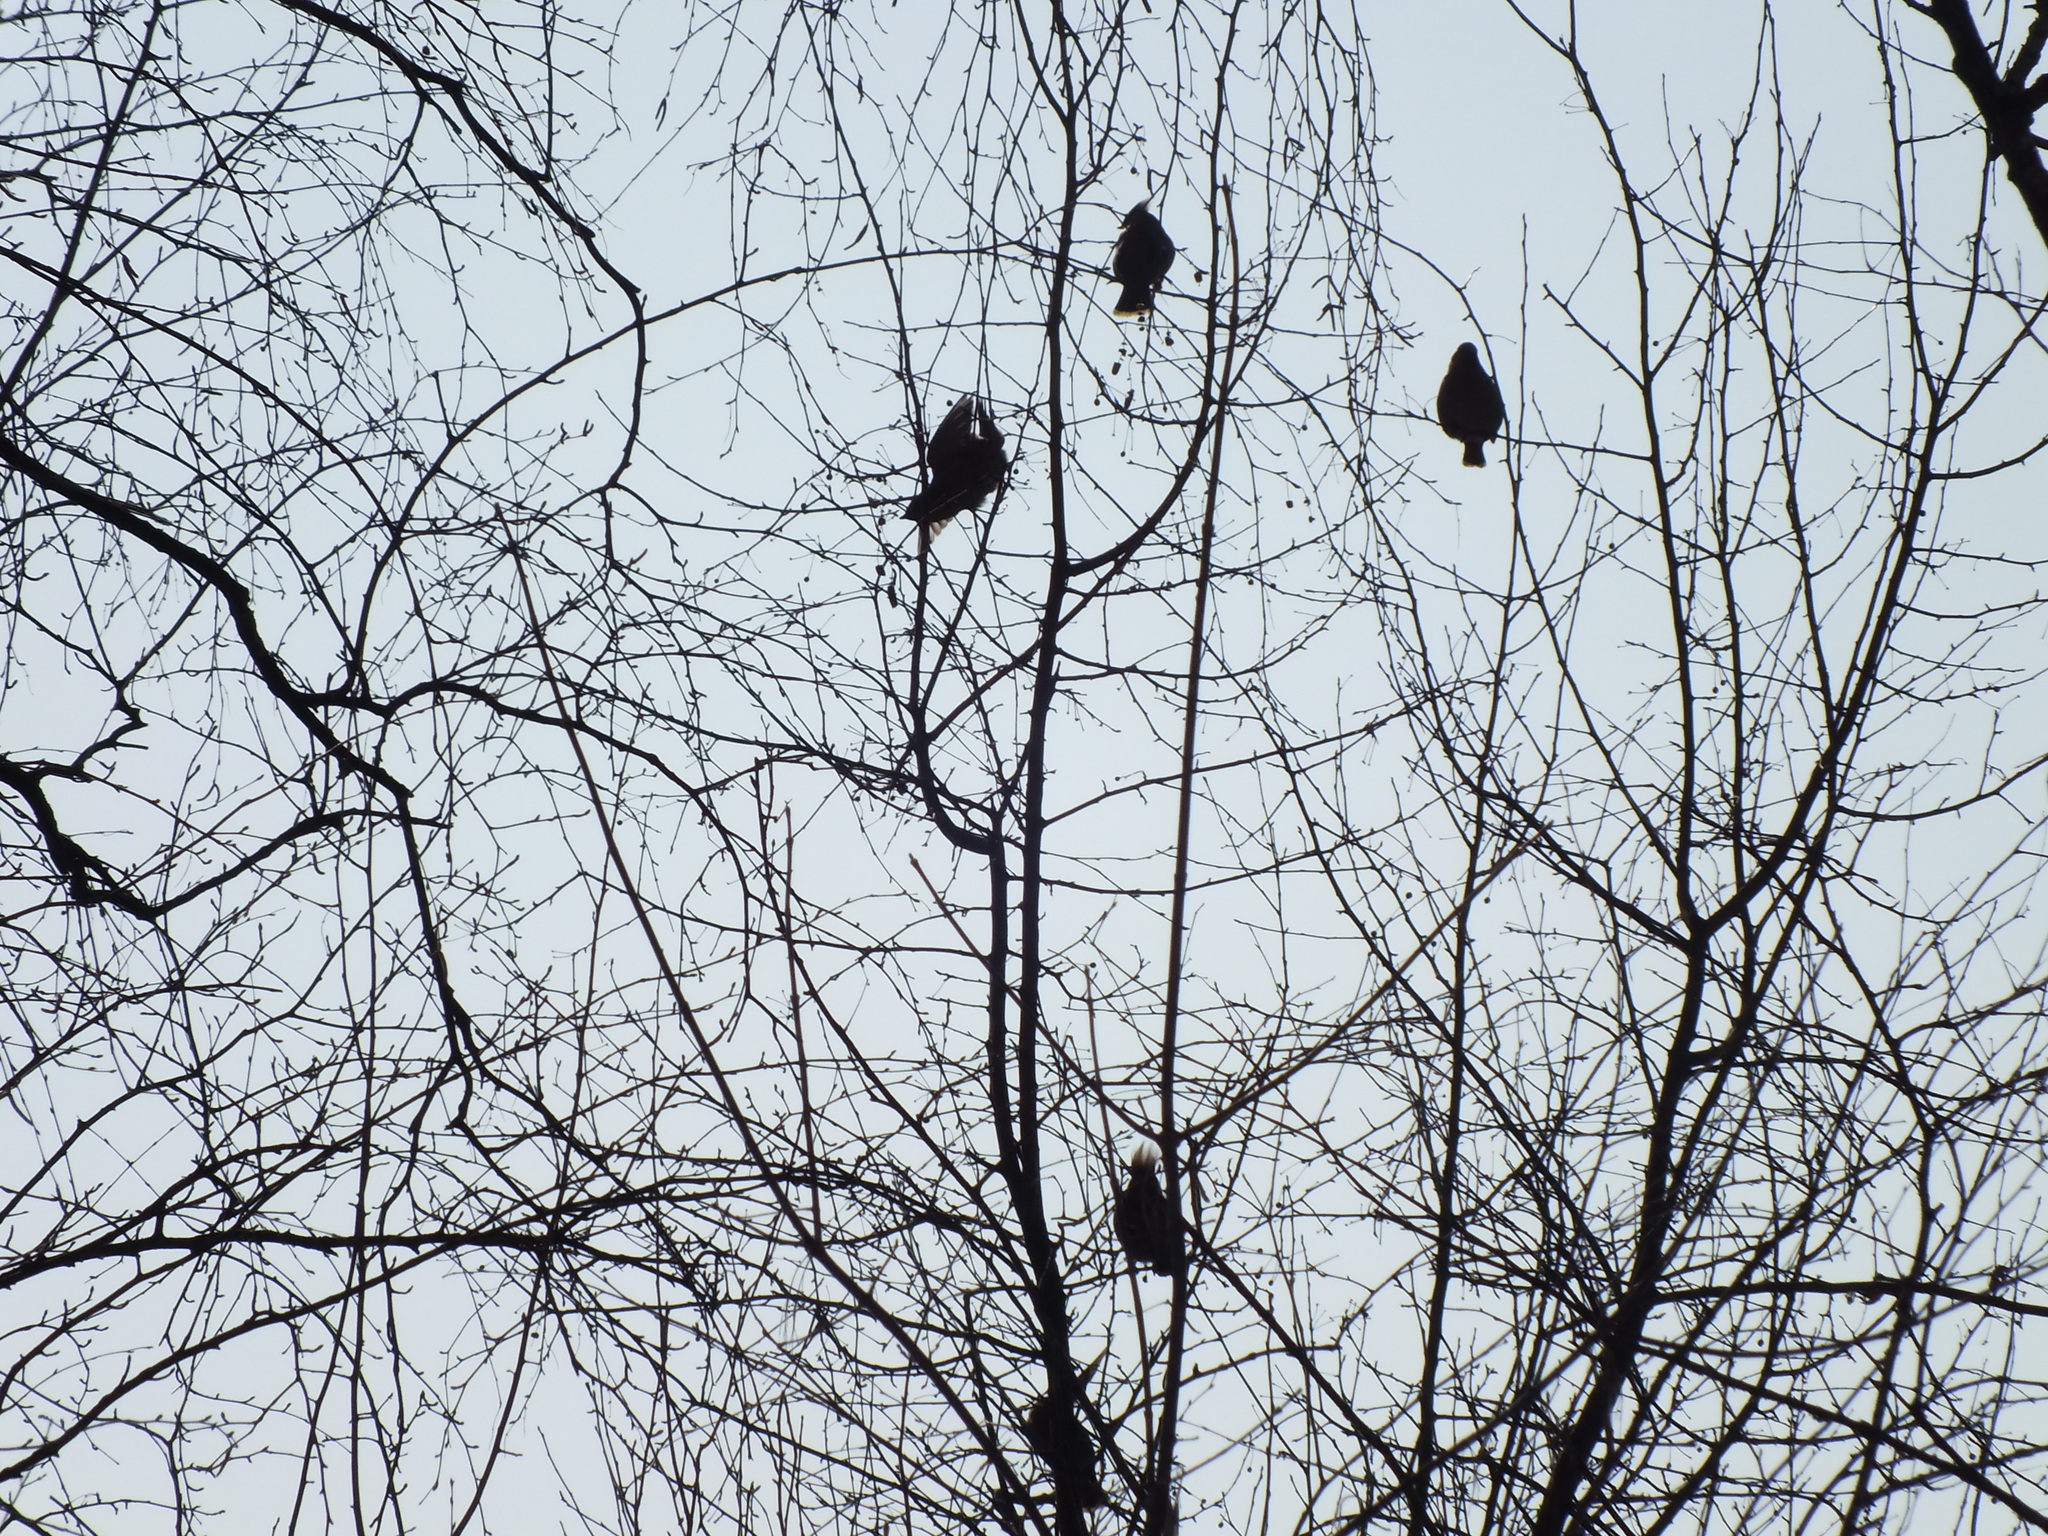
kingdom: Animalia
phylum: Chordata
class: Aves
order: Passeriformes
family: Bombycillidae
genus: Bombycilla
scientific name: Bombycilla garrulus
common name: Bohemian waxwing
